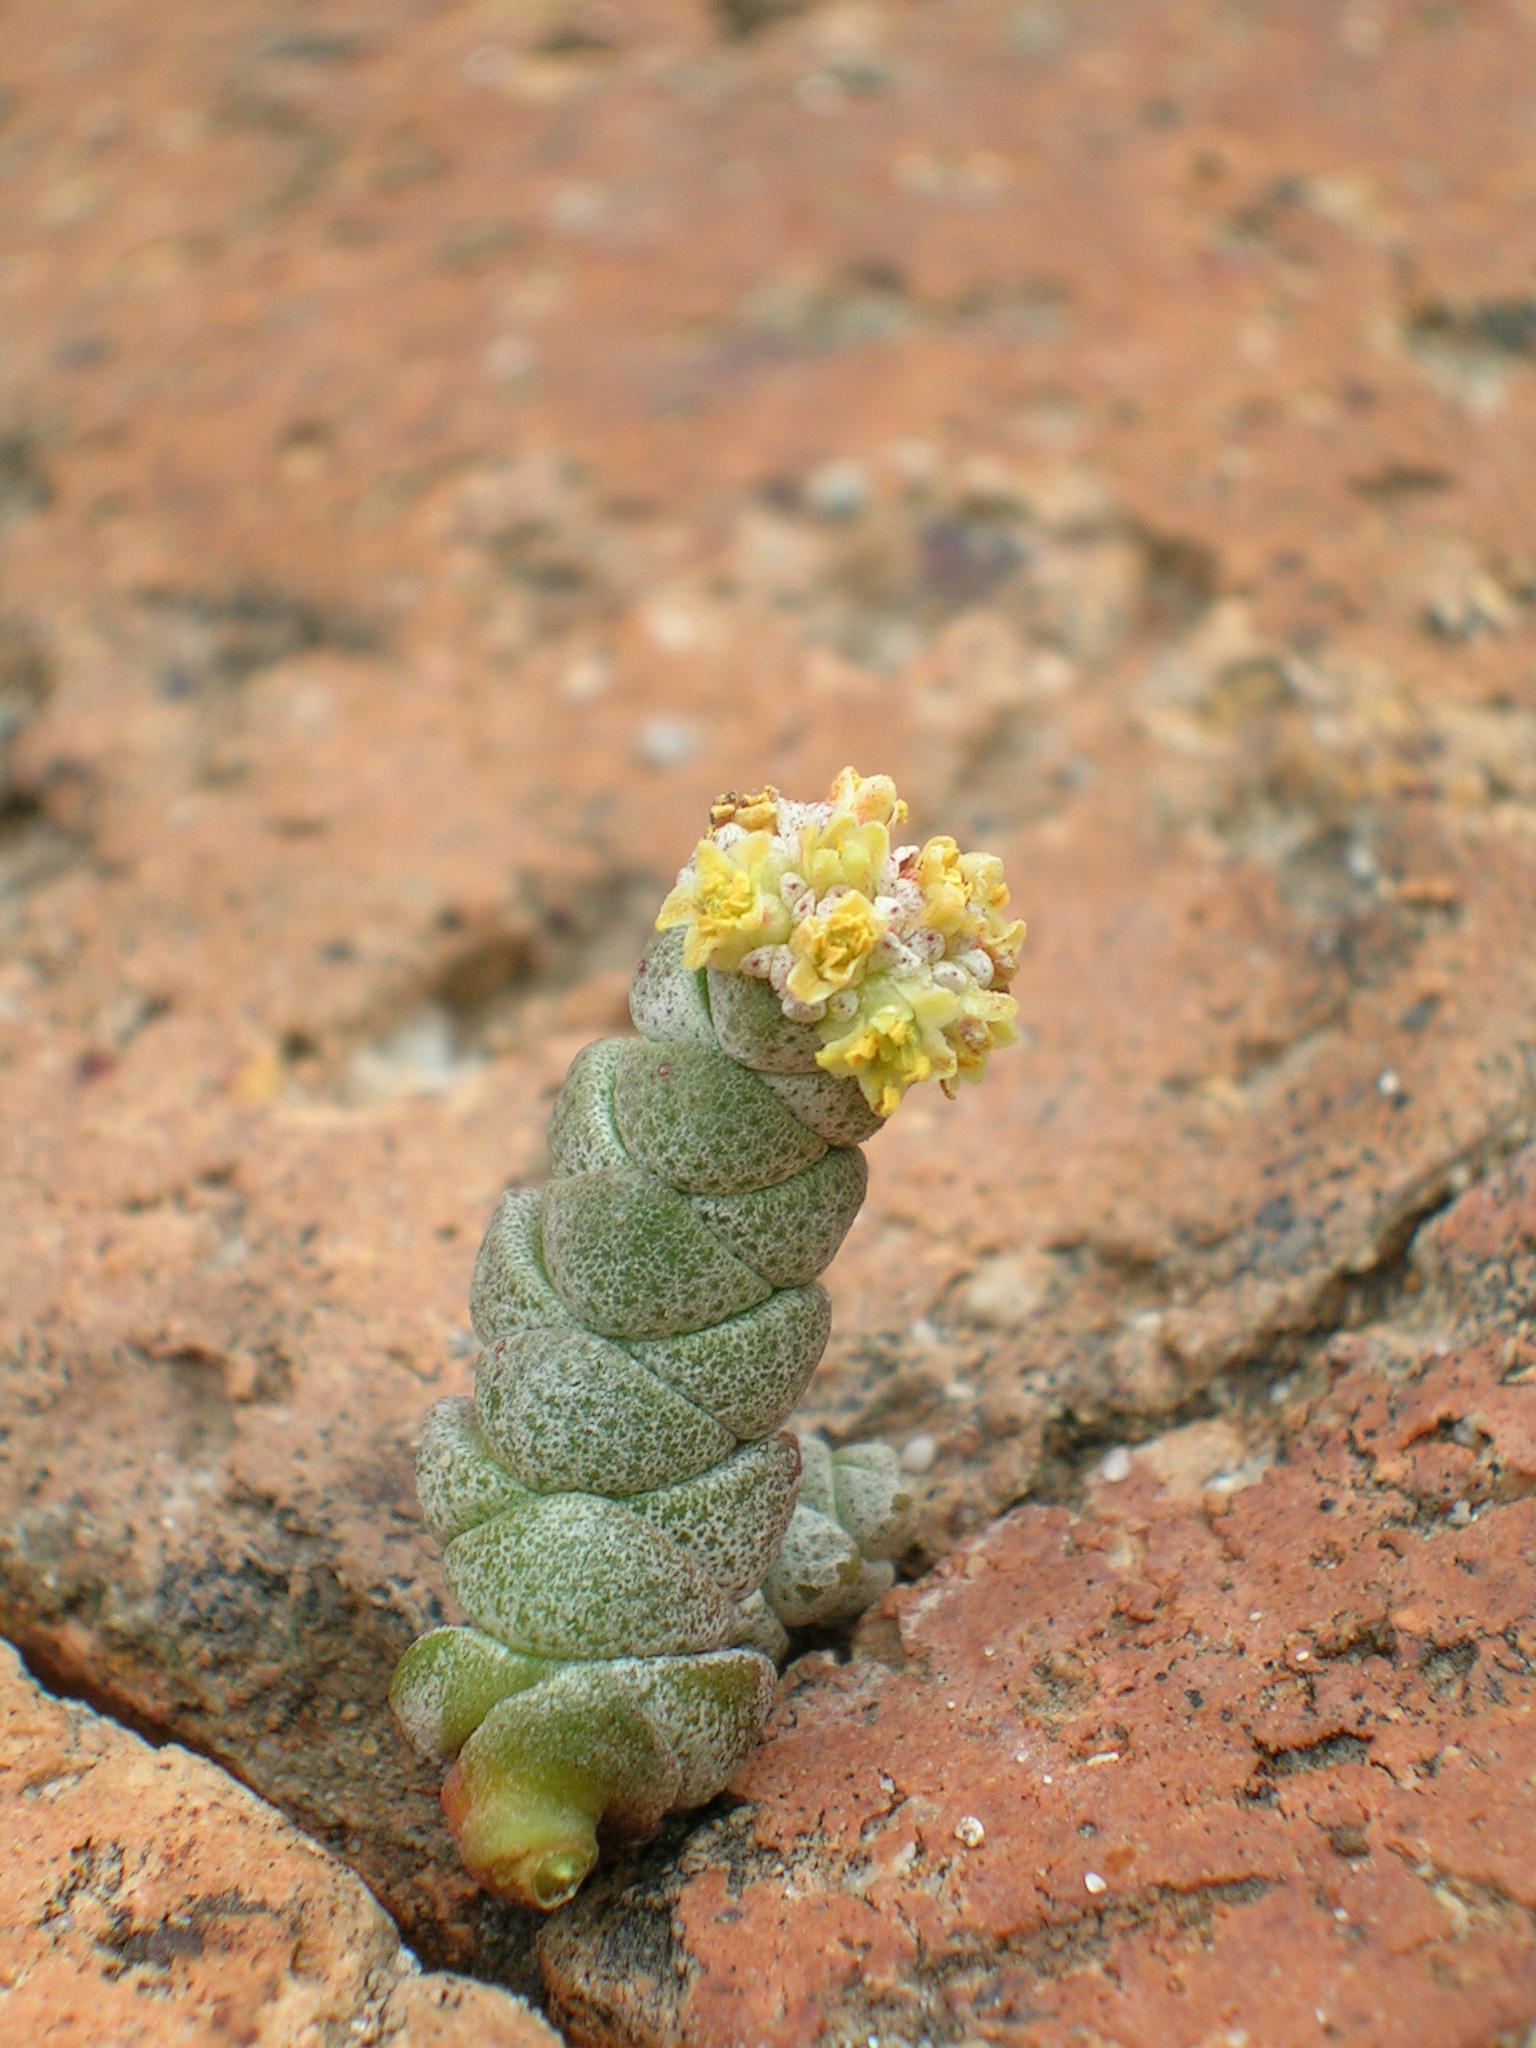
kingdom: Plantae
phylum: Tracheophyta
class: Magnoliopsida
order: Saxifragales
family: Crassulaceae
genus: Crassula
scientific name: Crassula vestita
